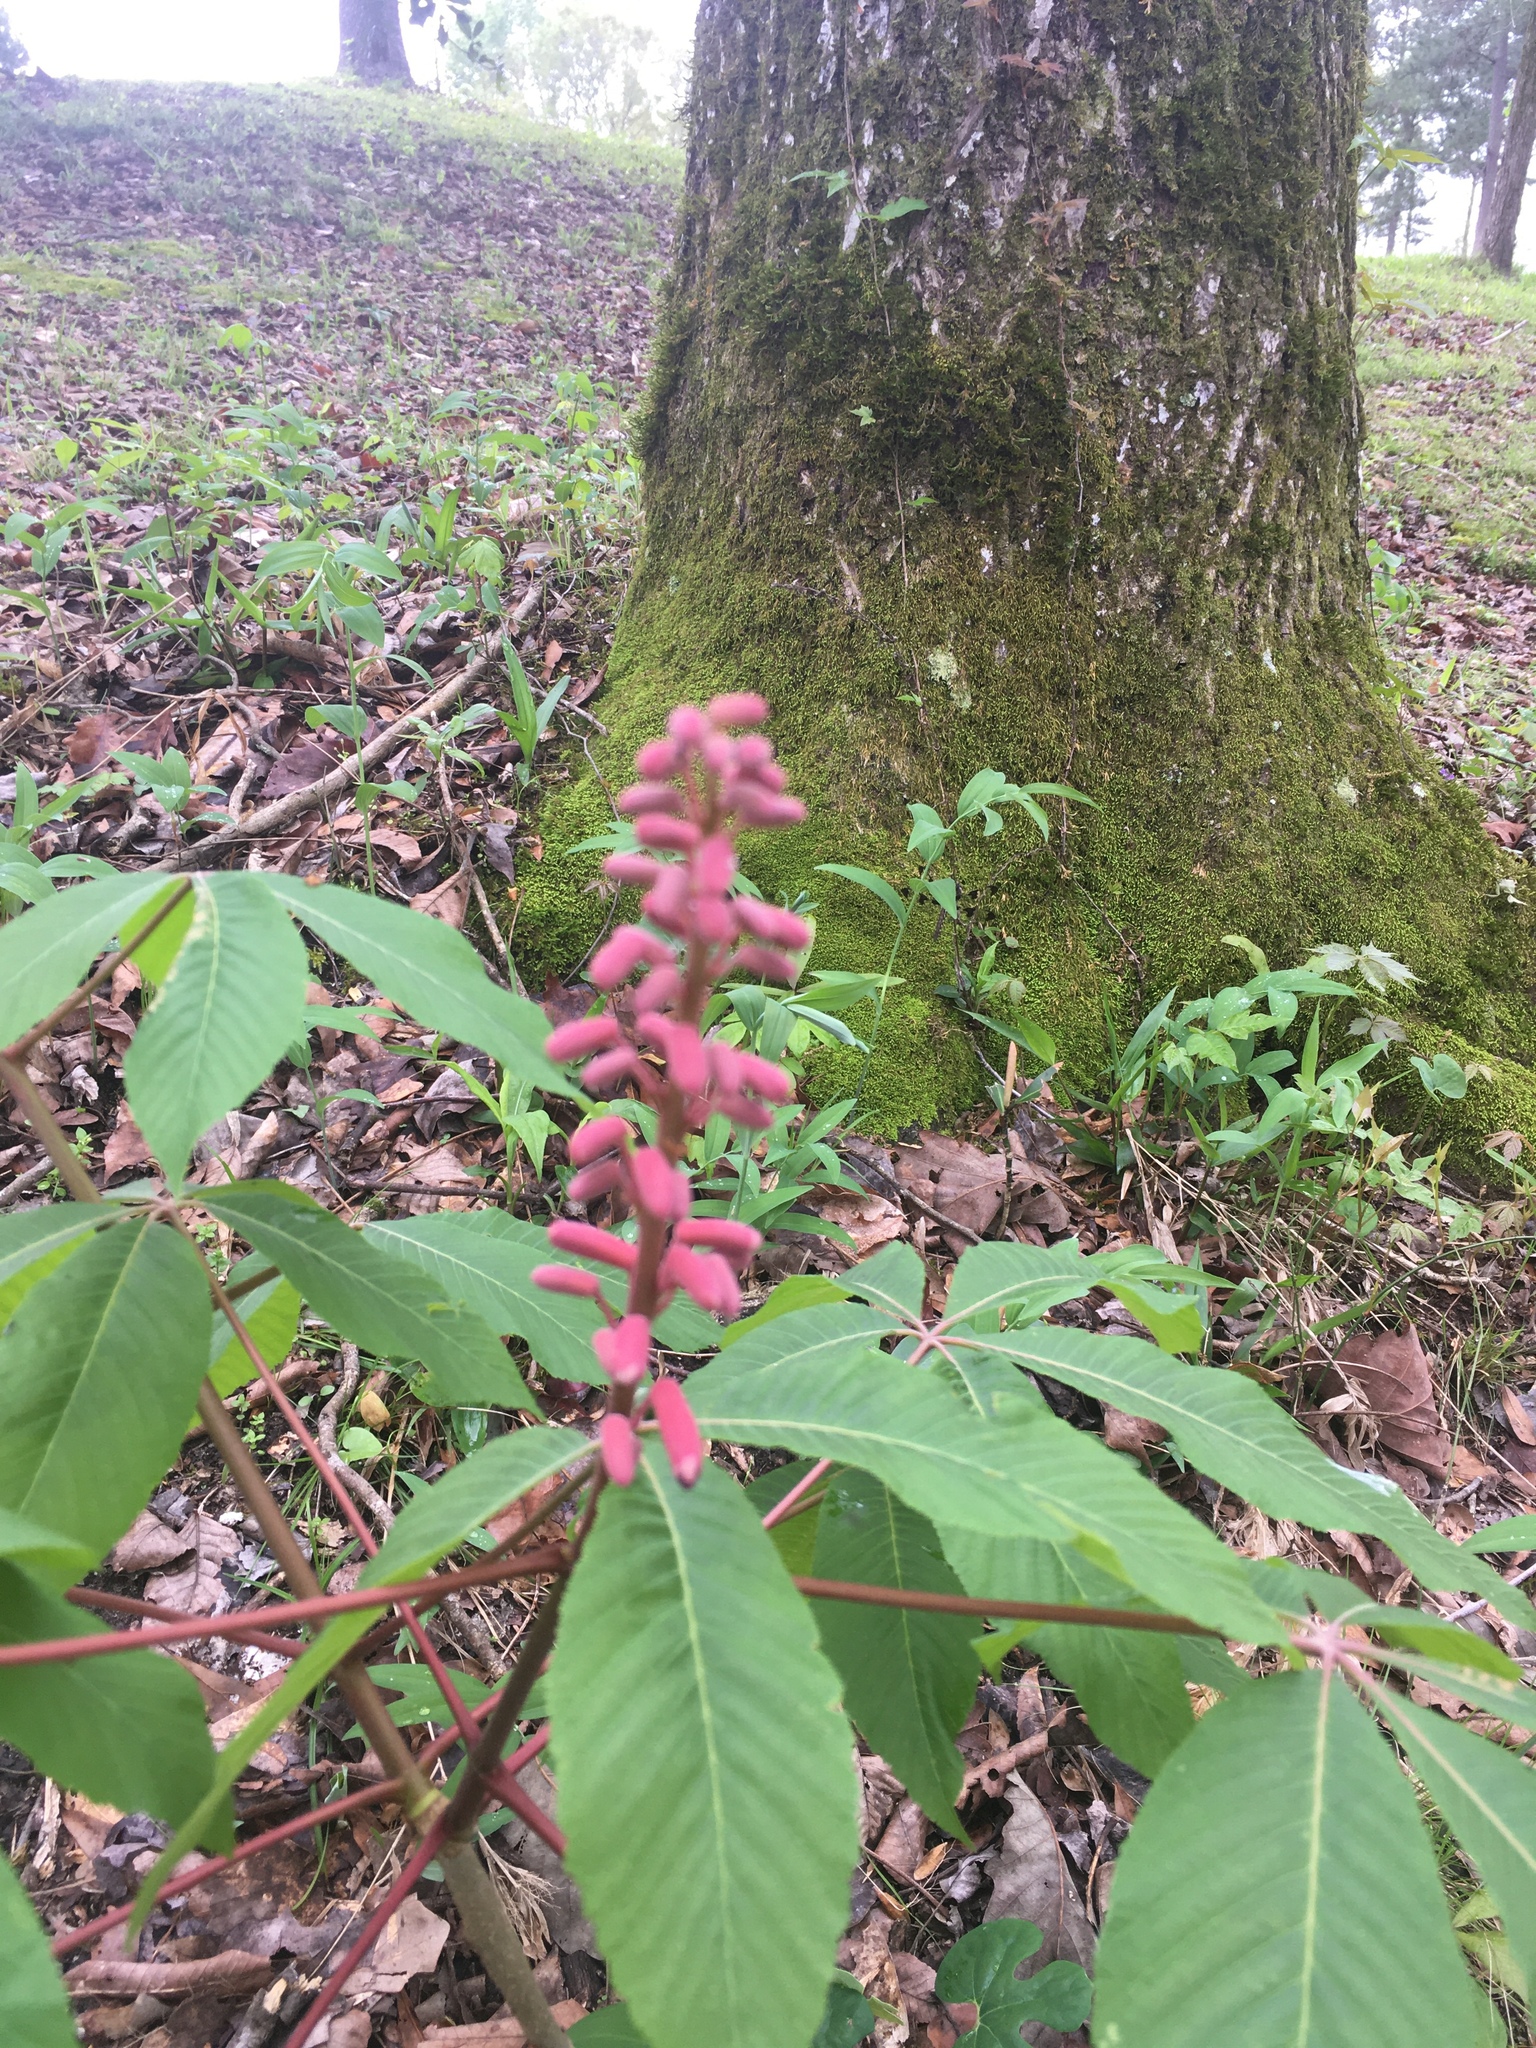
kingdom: Plantae
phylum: Tracheophyta
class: Magnoliopsida
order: Sapindales
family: Sapindaceae
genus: Aesculus
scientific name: Aesculus pavia
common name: Red buckeye
